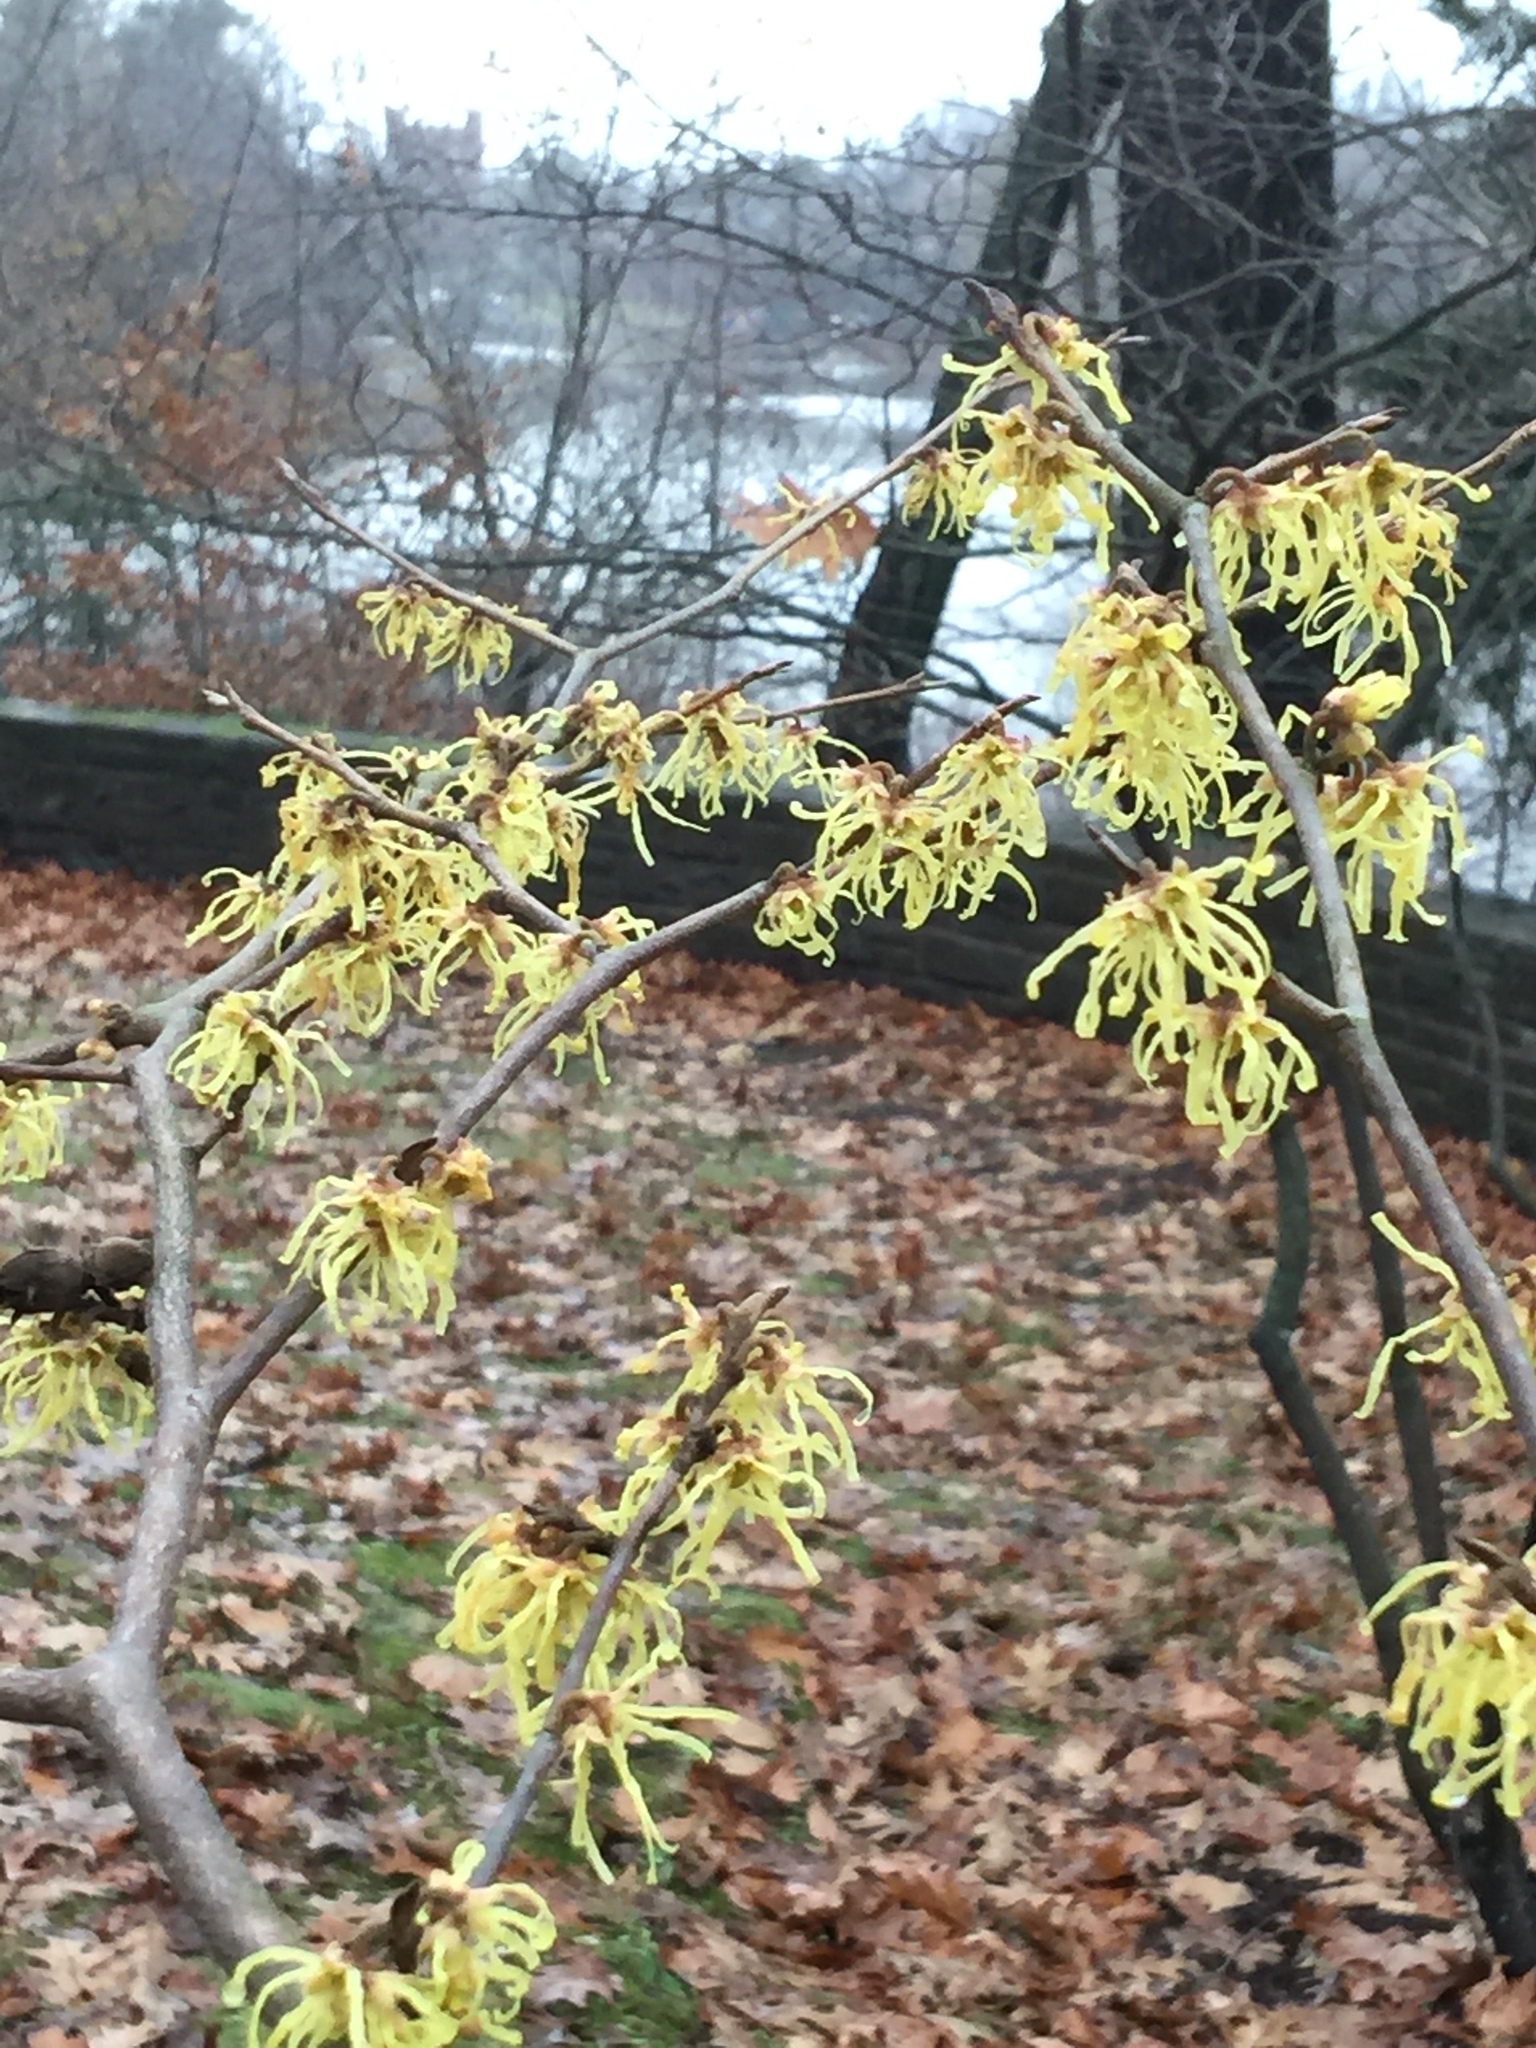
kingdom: Plantae
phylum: Tracheophyta
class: Magnoliopsida
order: Saxifragales
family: Hamamelidaceae
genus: Hamamelis
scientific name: Hamamelis virginiana
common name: Witch-hazel
